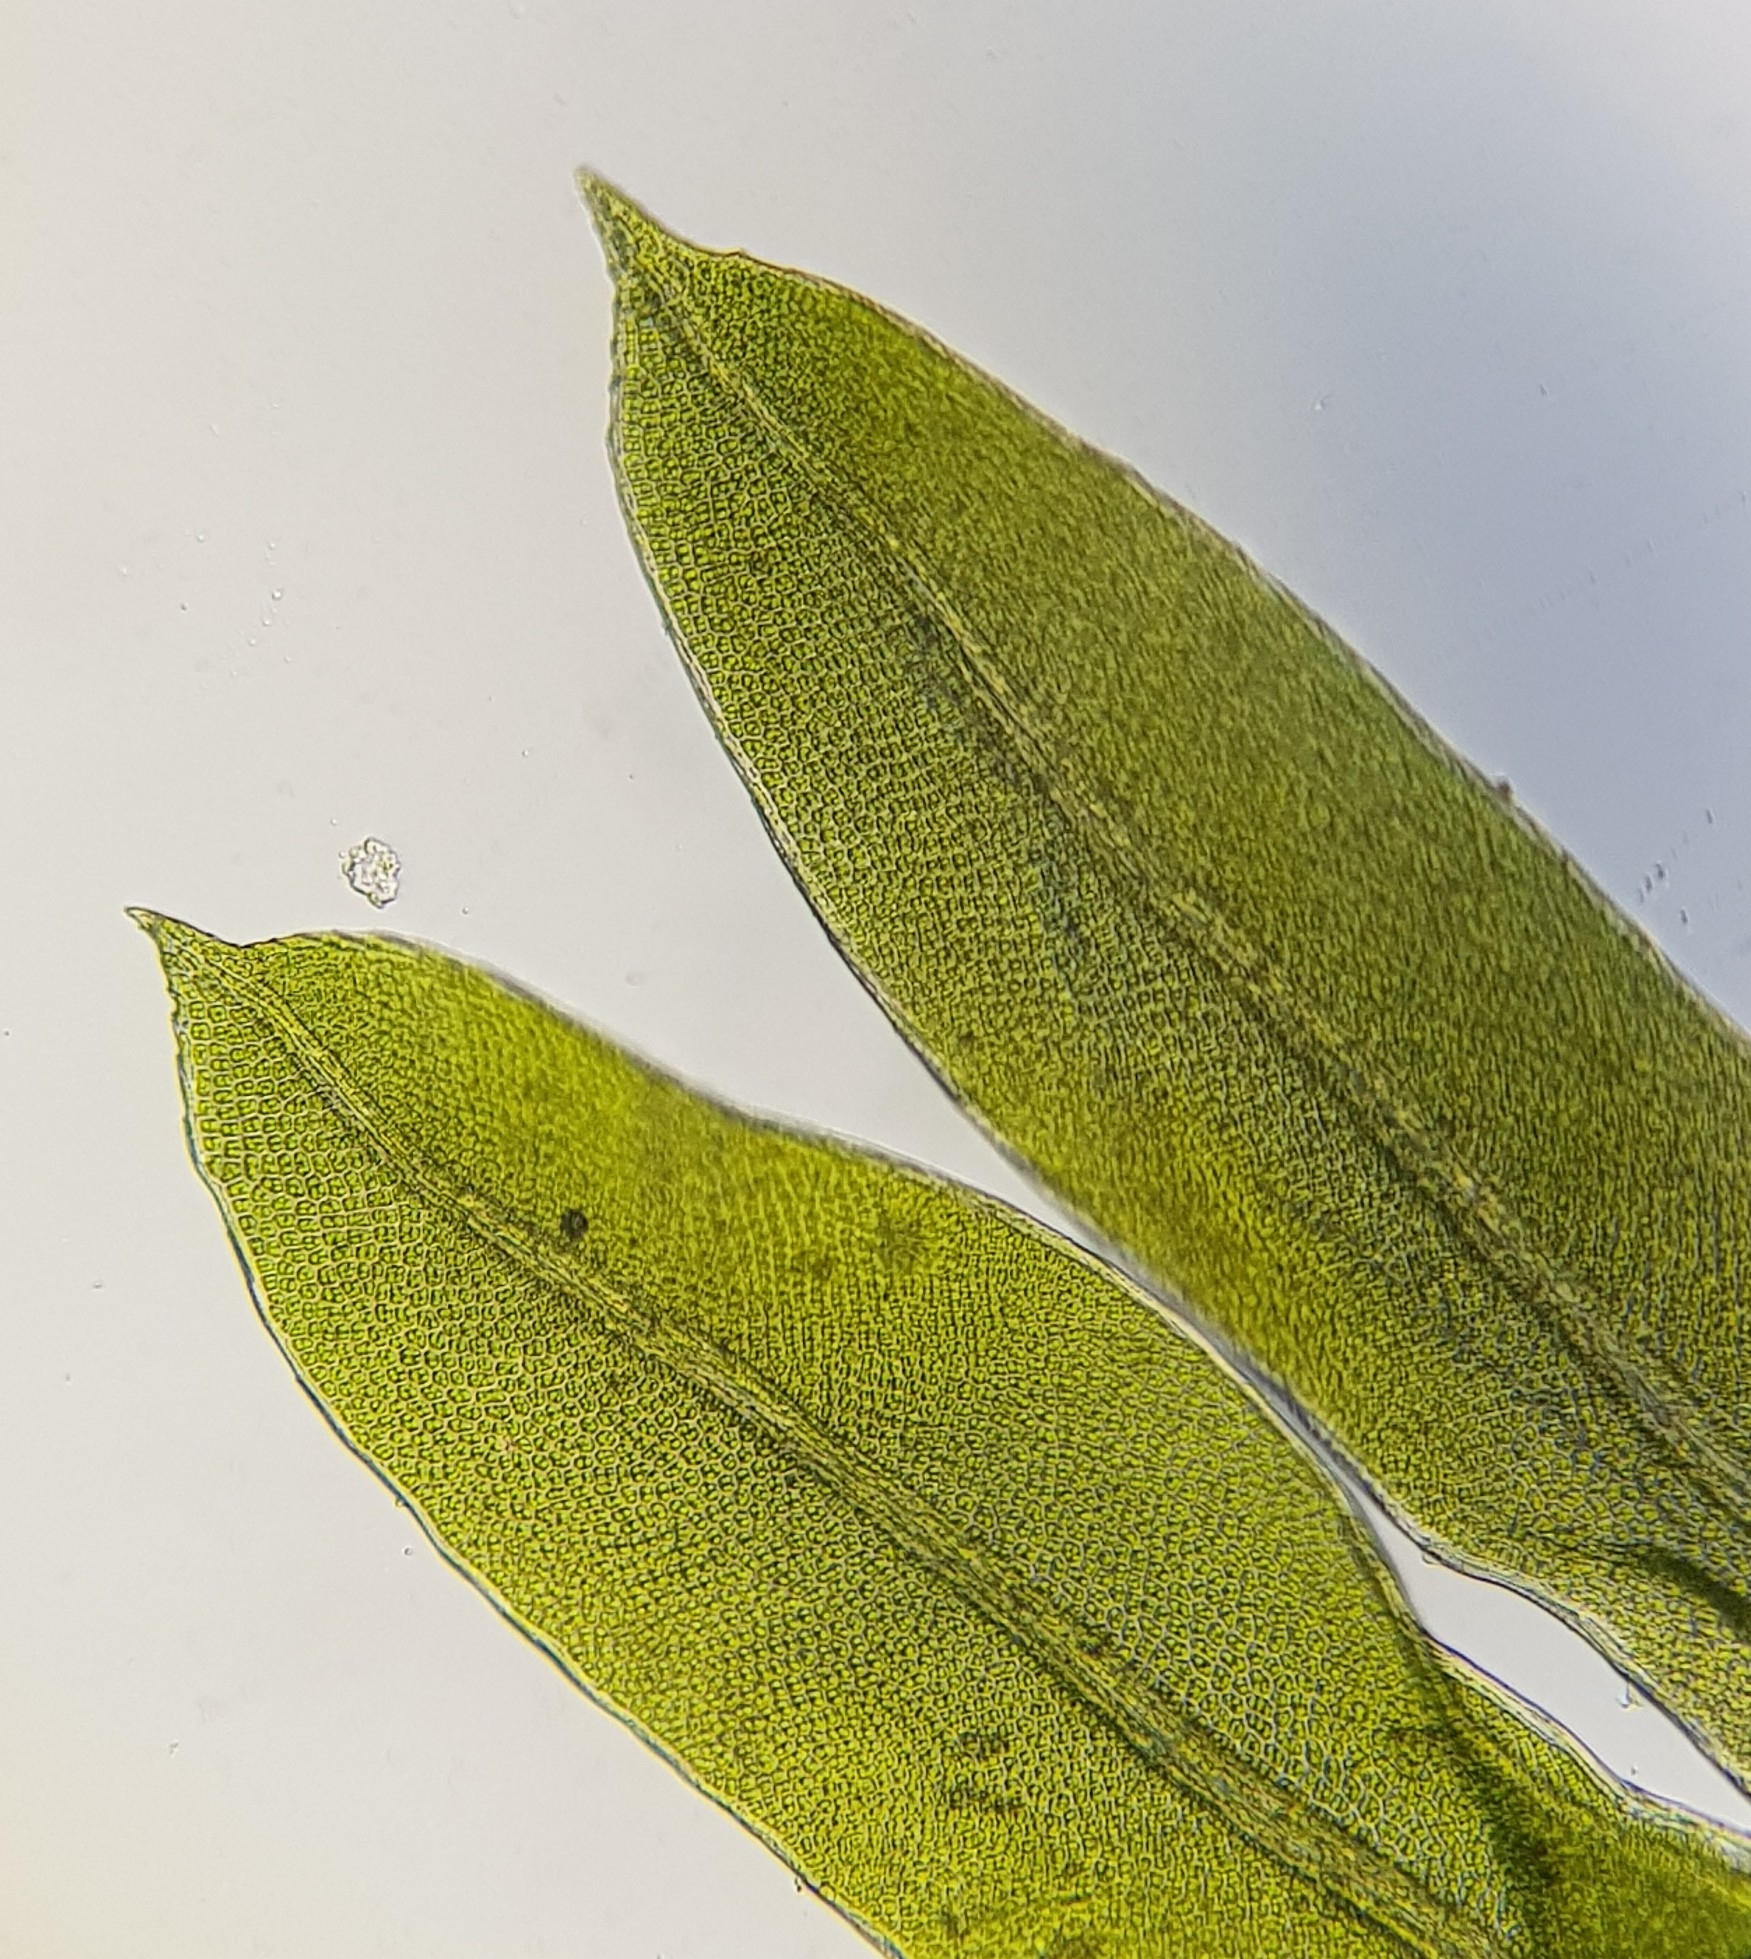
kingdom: Plantae
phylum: Bryophyta
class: Bryopsida
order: Dicranales
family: Fissidentaceae
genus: Fissidens
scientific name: Fissidens bryoides
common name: Lesser pocket moss
